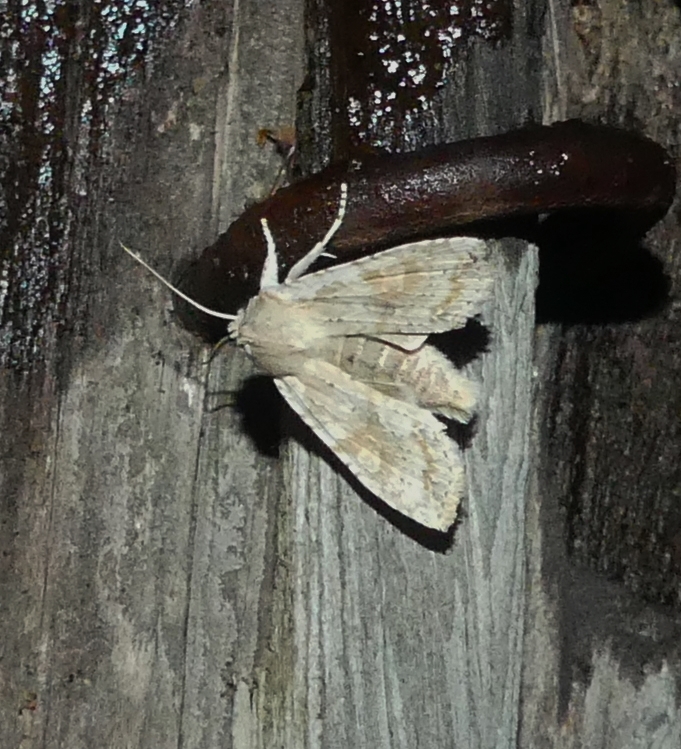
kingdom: Animalia
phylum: Arthropoda
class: Insecta
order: Lepidoptera
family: Noctuidae
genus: Lithophane
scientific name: Lithophane bethunei
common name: Bethune's pinion moth
